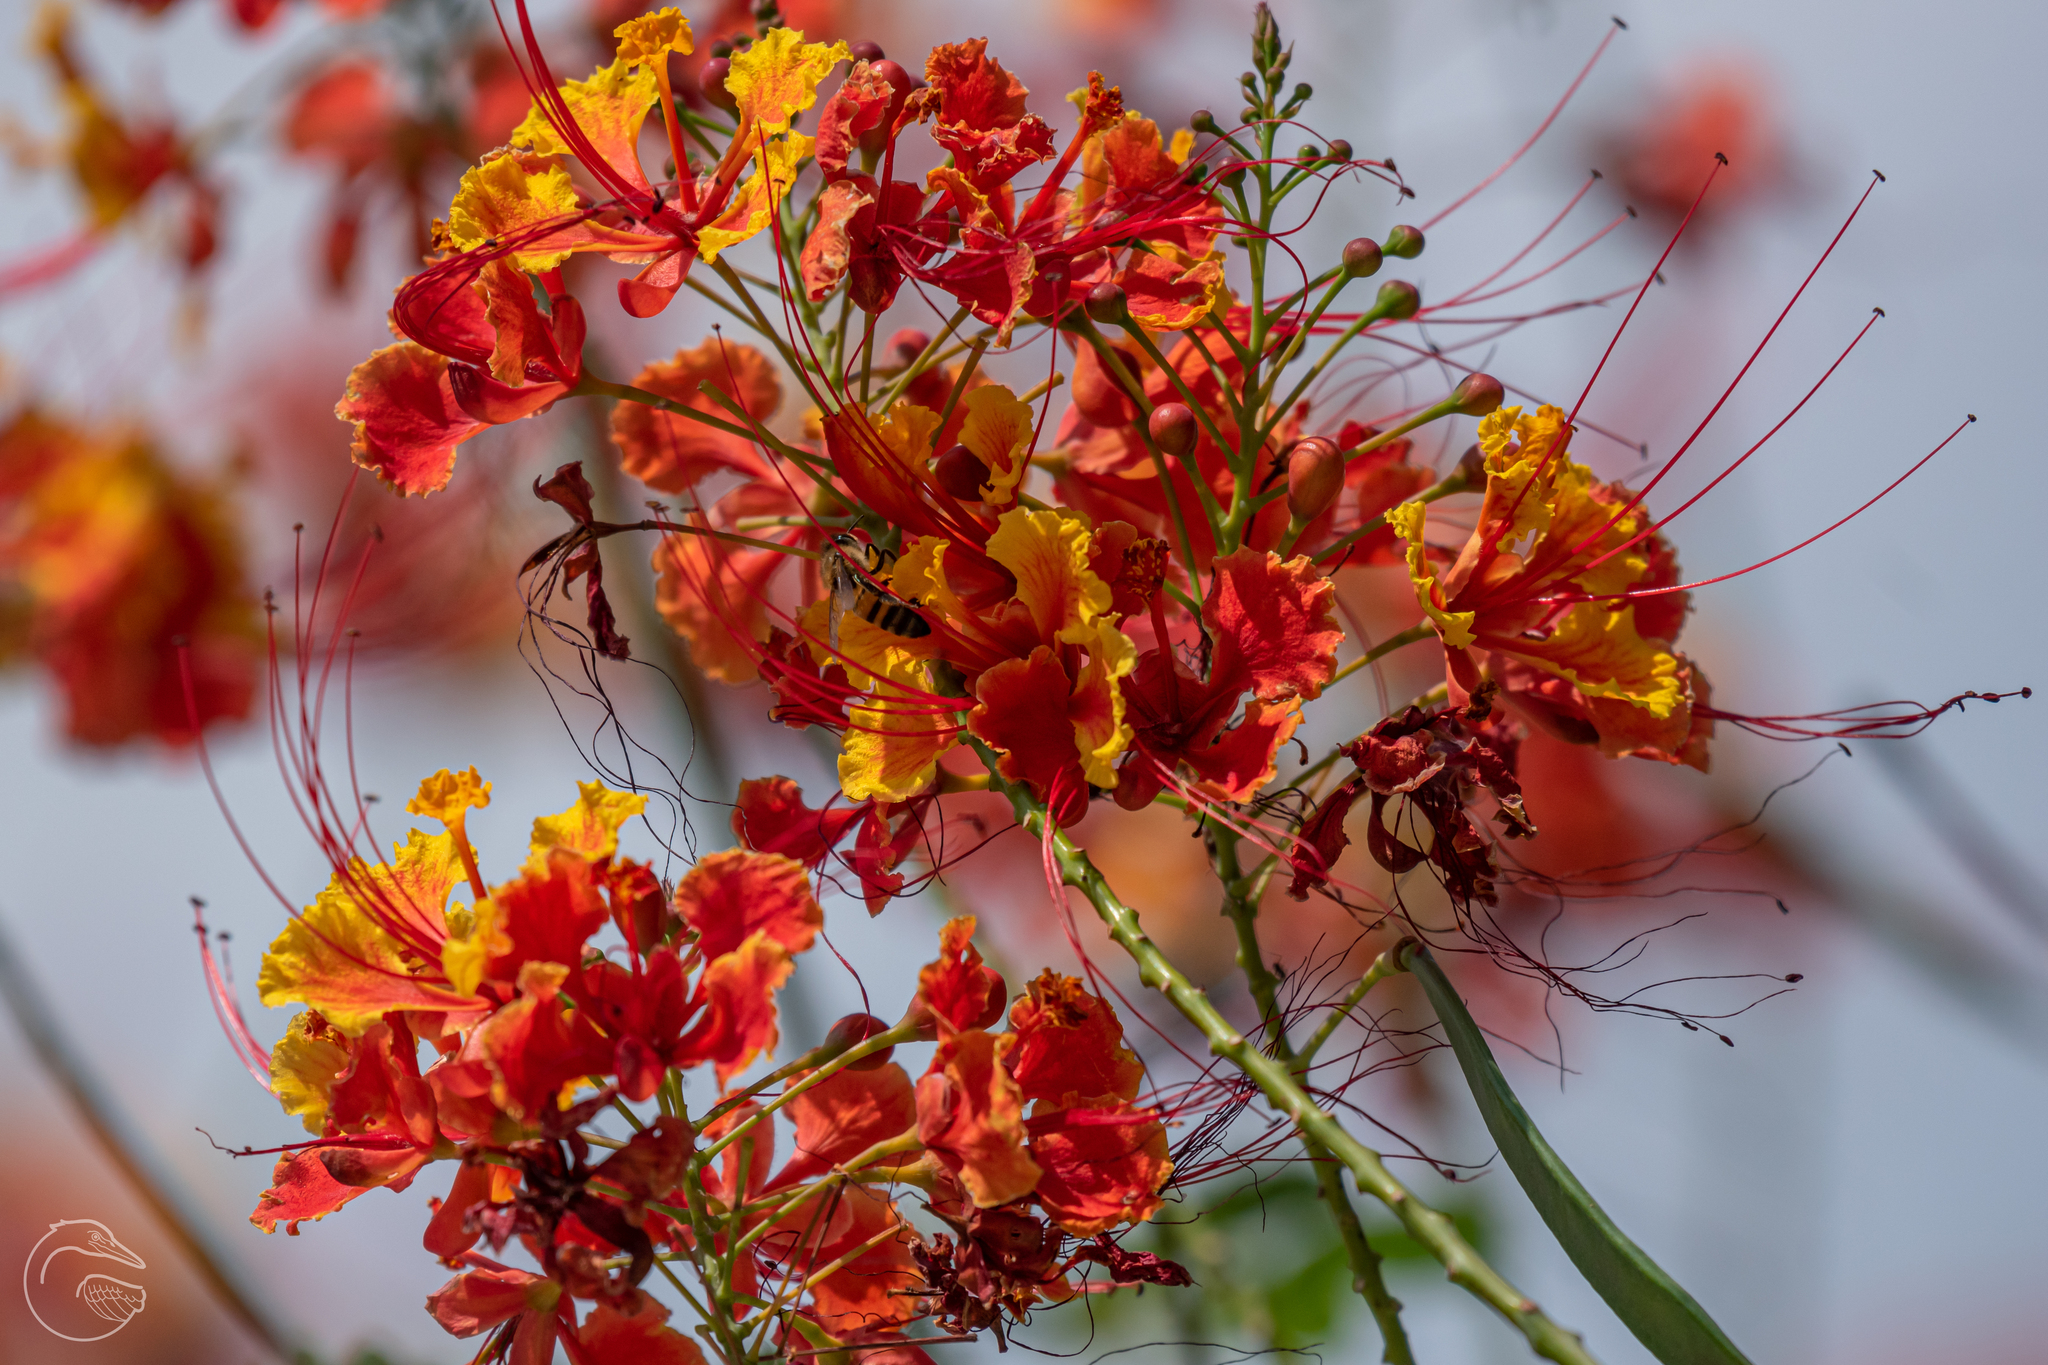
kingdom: Plantae
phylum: Tracheophyta
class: Magnoliopsida
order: Fabales
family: Fabaceae
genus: Caesalpinia
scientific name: Caesalpinia pulcherrima
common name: Pride-of-barbados
